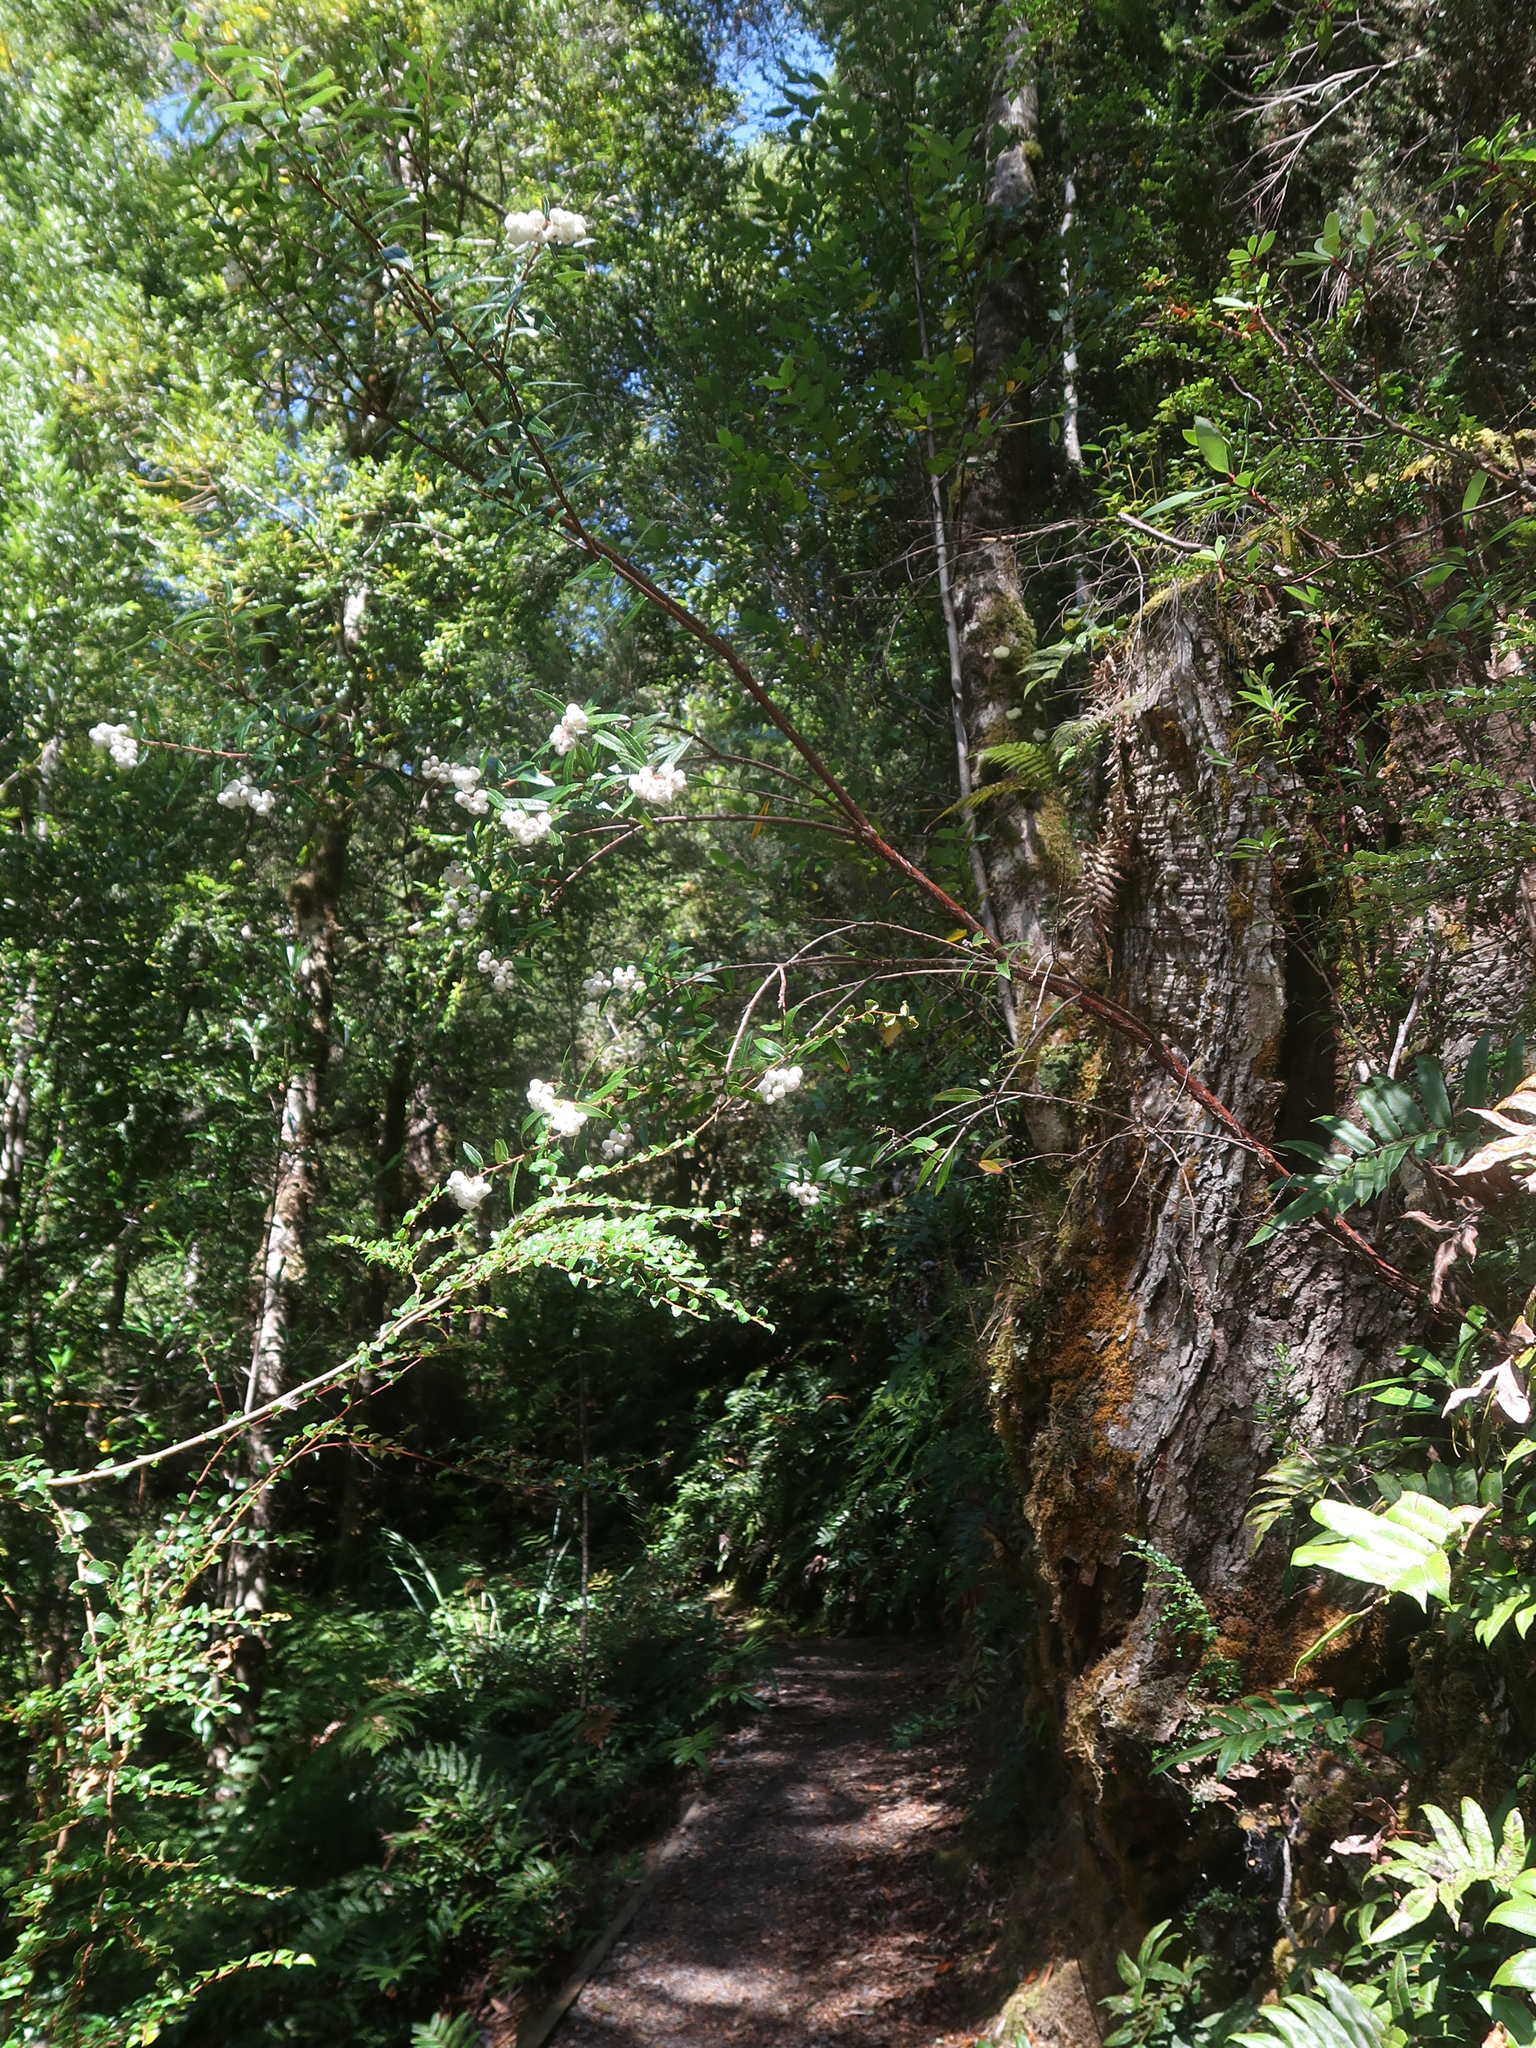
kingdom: Plantae
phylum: Tracheophyta
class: Magnoliopsida
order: Ericales
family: Ericaceae
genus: Gaultheria
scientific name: Gaultheria hispida
